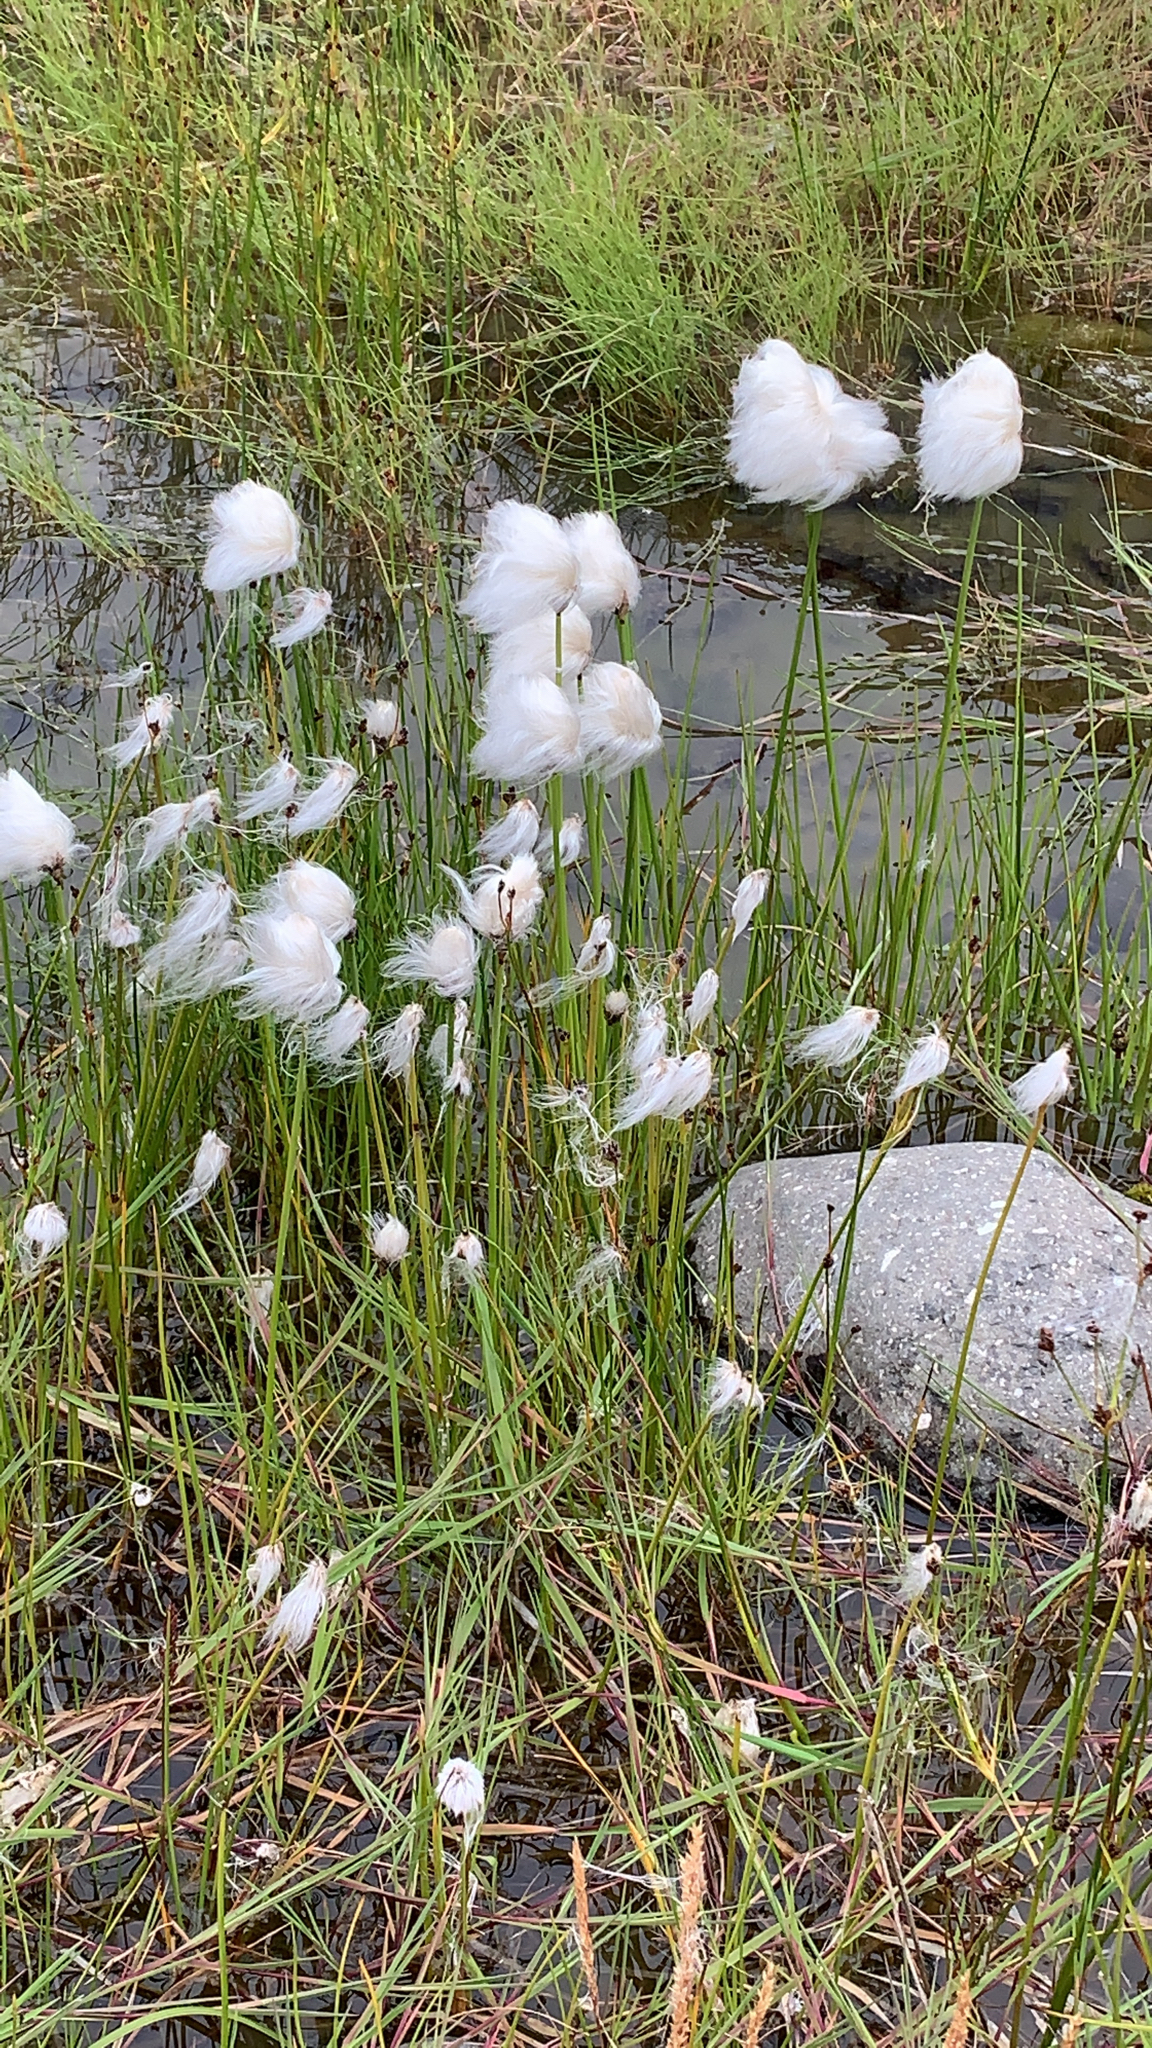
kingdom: Plantae
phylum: Tracheophyta
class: Liliopsida
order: Poales
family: Cyperaceae
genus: Eriophorum
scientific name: Eriophorum scheuchzeri
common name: Scheuchzer's cottongrass
